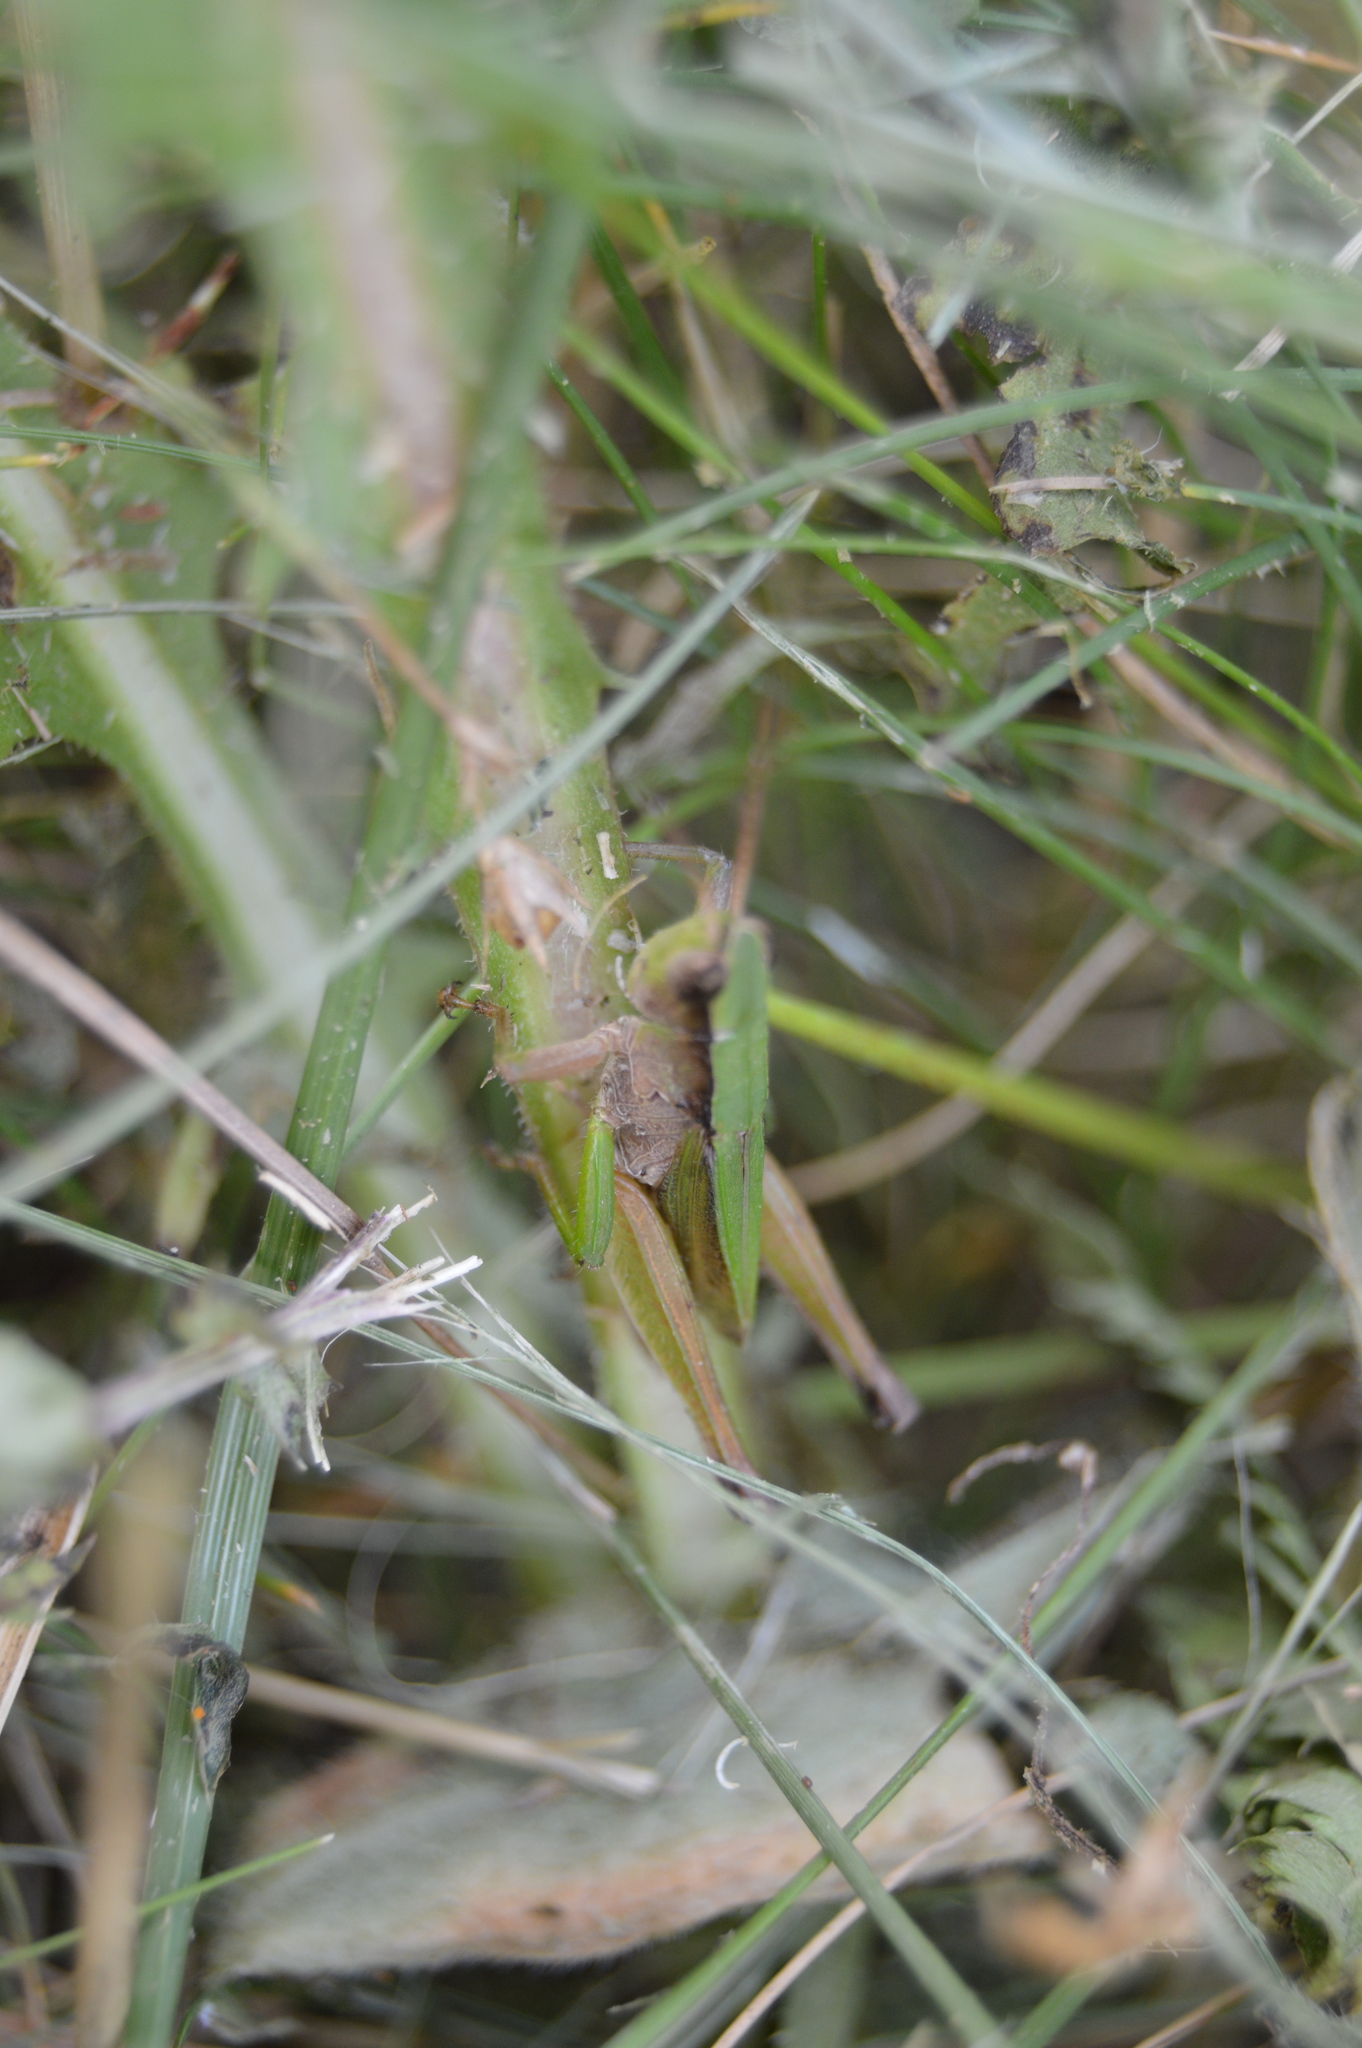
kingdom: Animalia
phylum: Arthropoda
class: Insecta
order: Orthoptera
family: Acrididae
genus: Dichromorpha
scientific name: Dichromorpha viridis
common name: Short-winged green grasshopper
